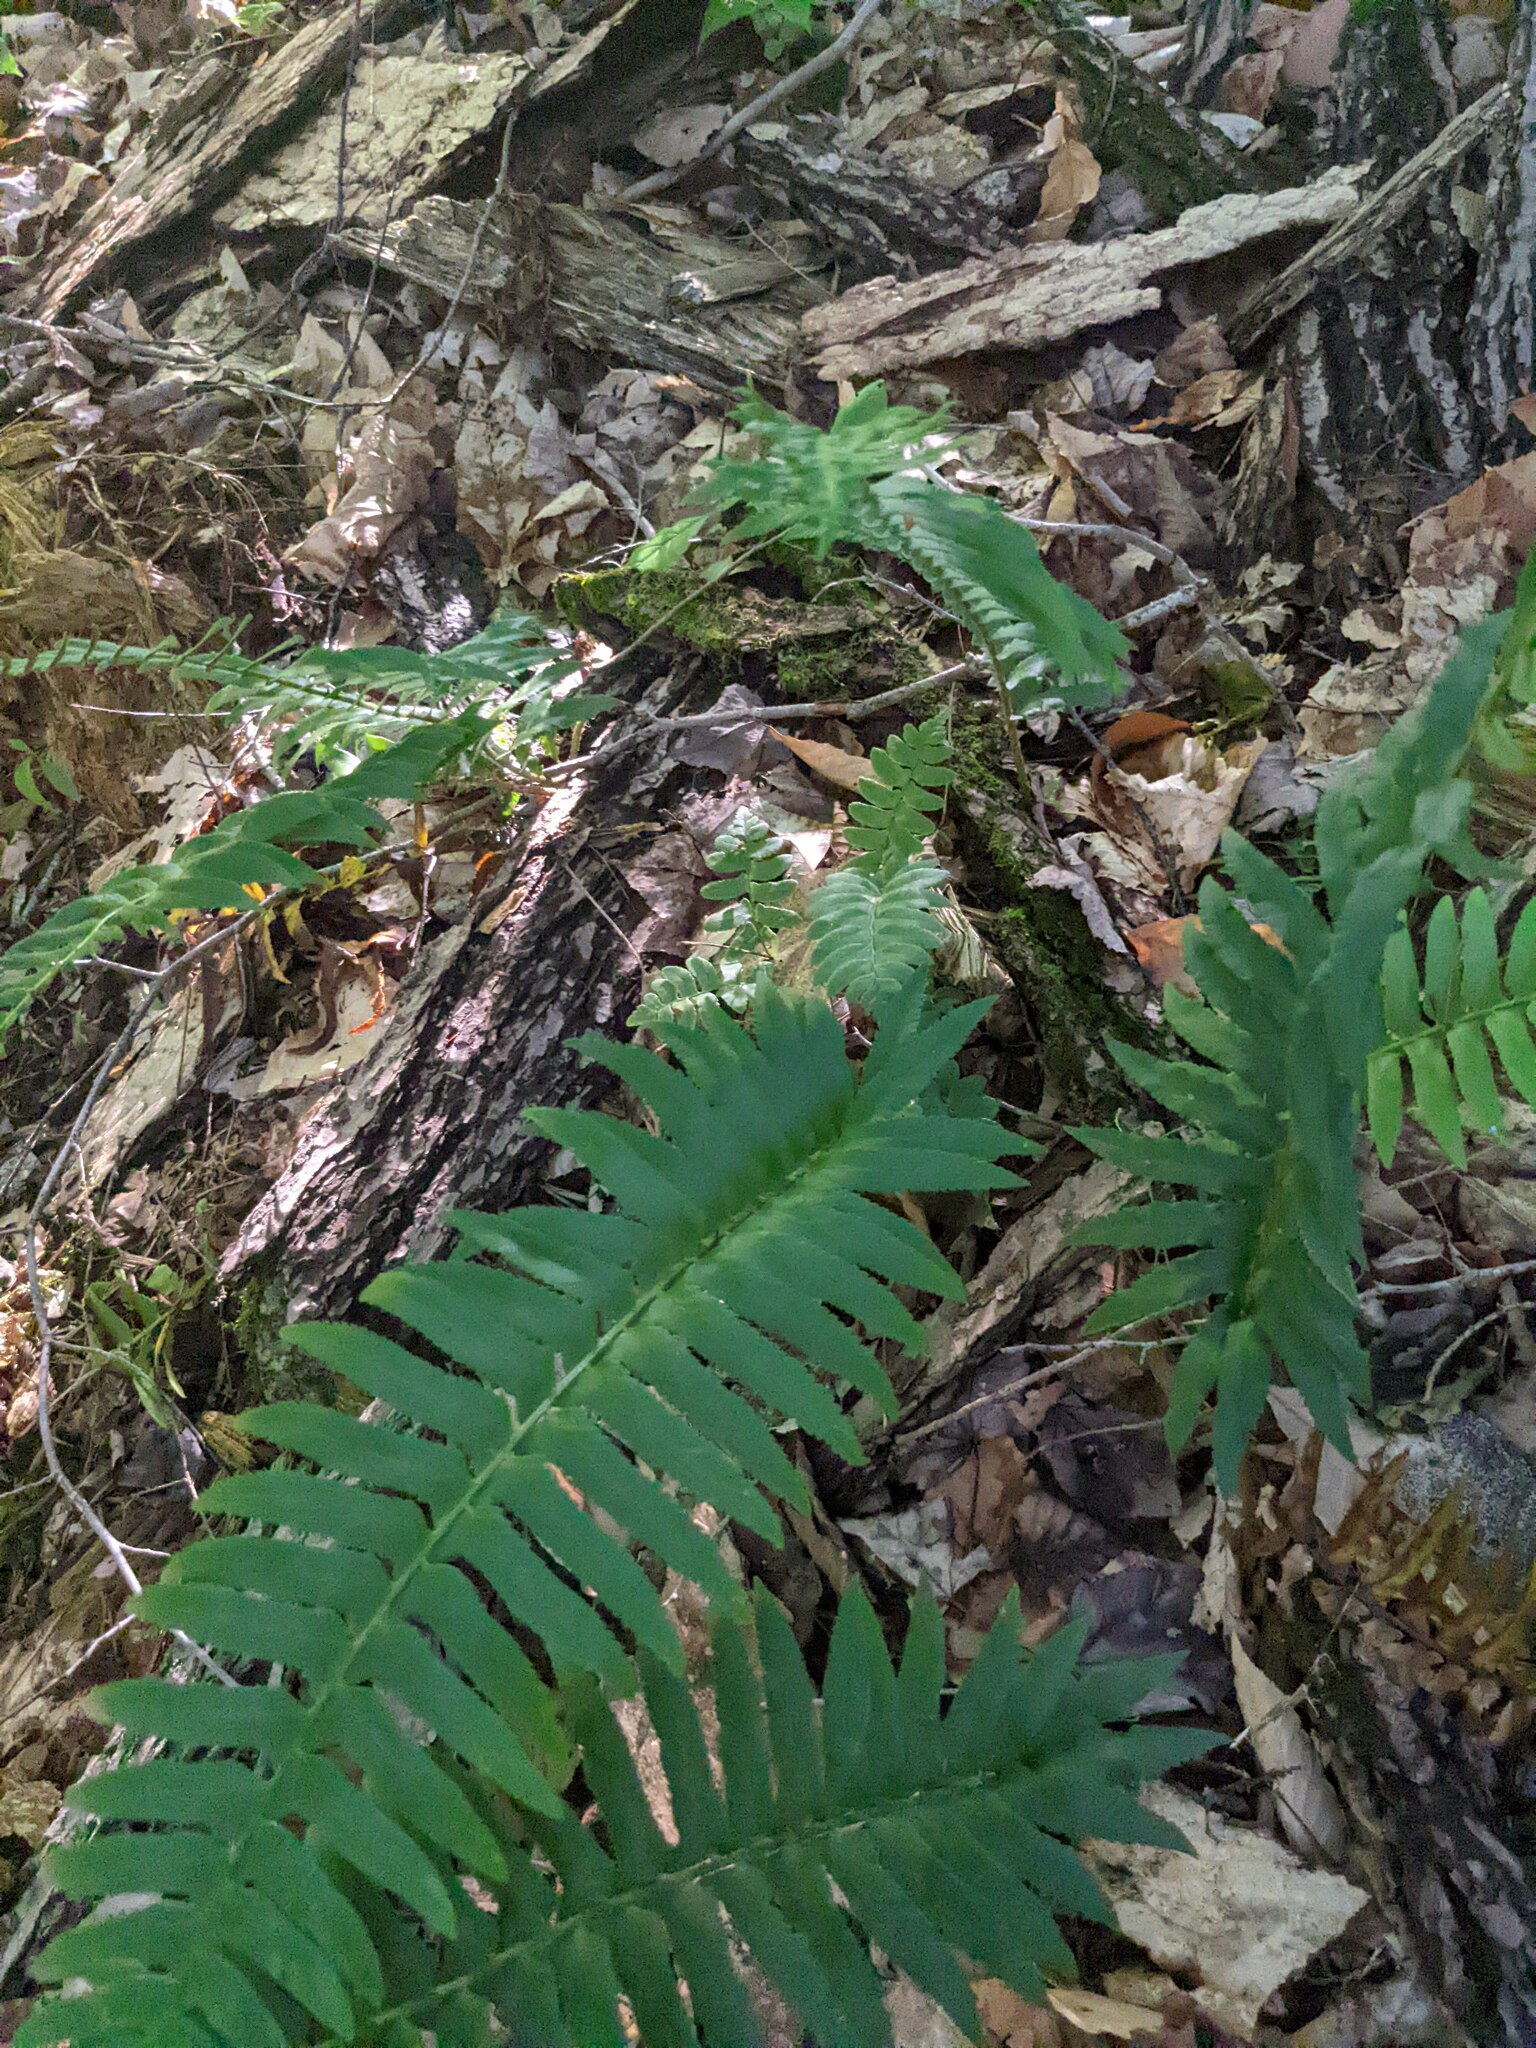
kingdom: Plantae
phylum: Tracheophyta
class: Polypodiopsida
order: Polypodiales
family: Dryopteridaceae
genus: Polystichum
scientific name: Polystichum acrostichoides
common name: Christmas fern
